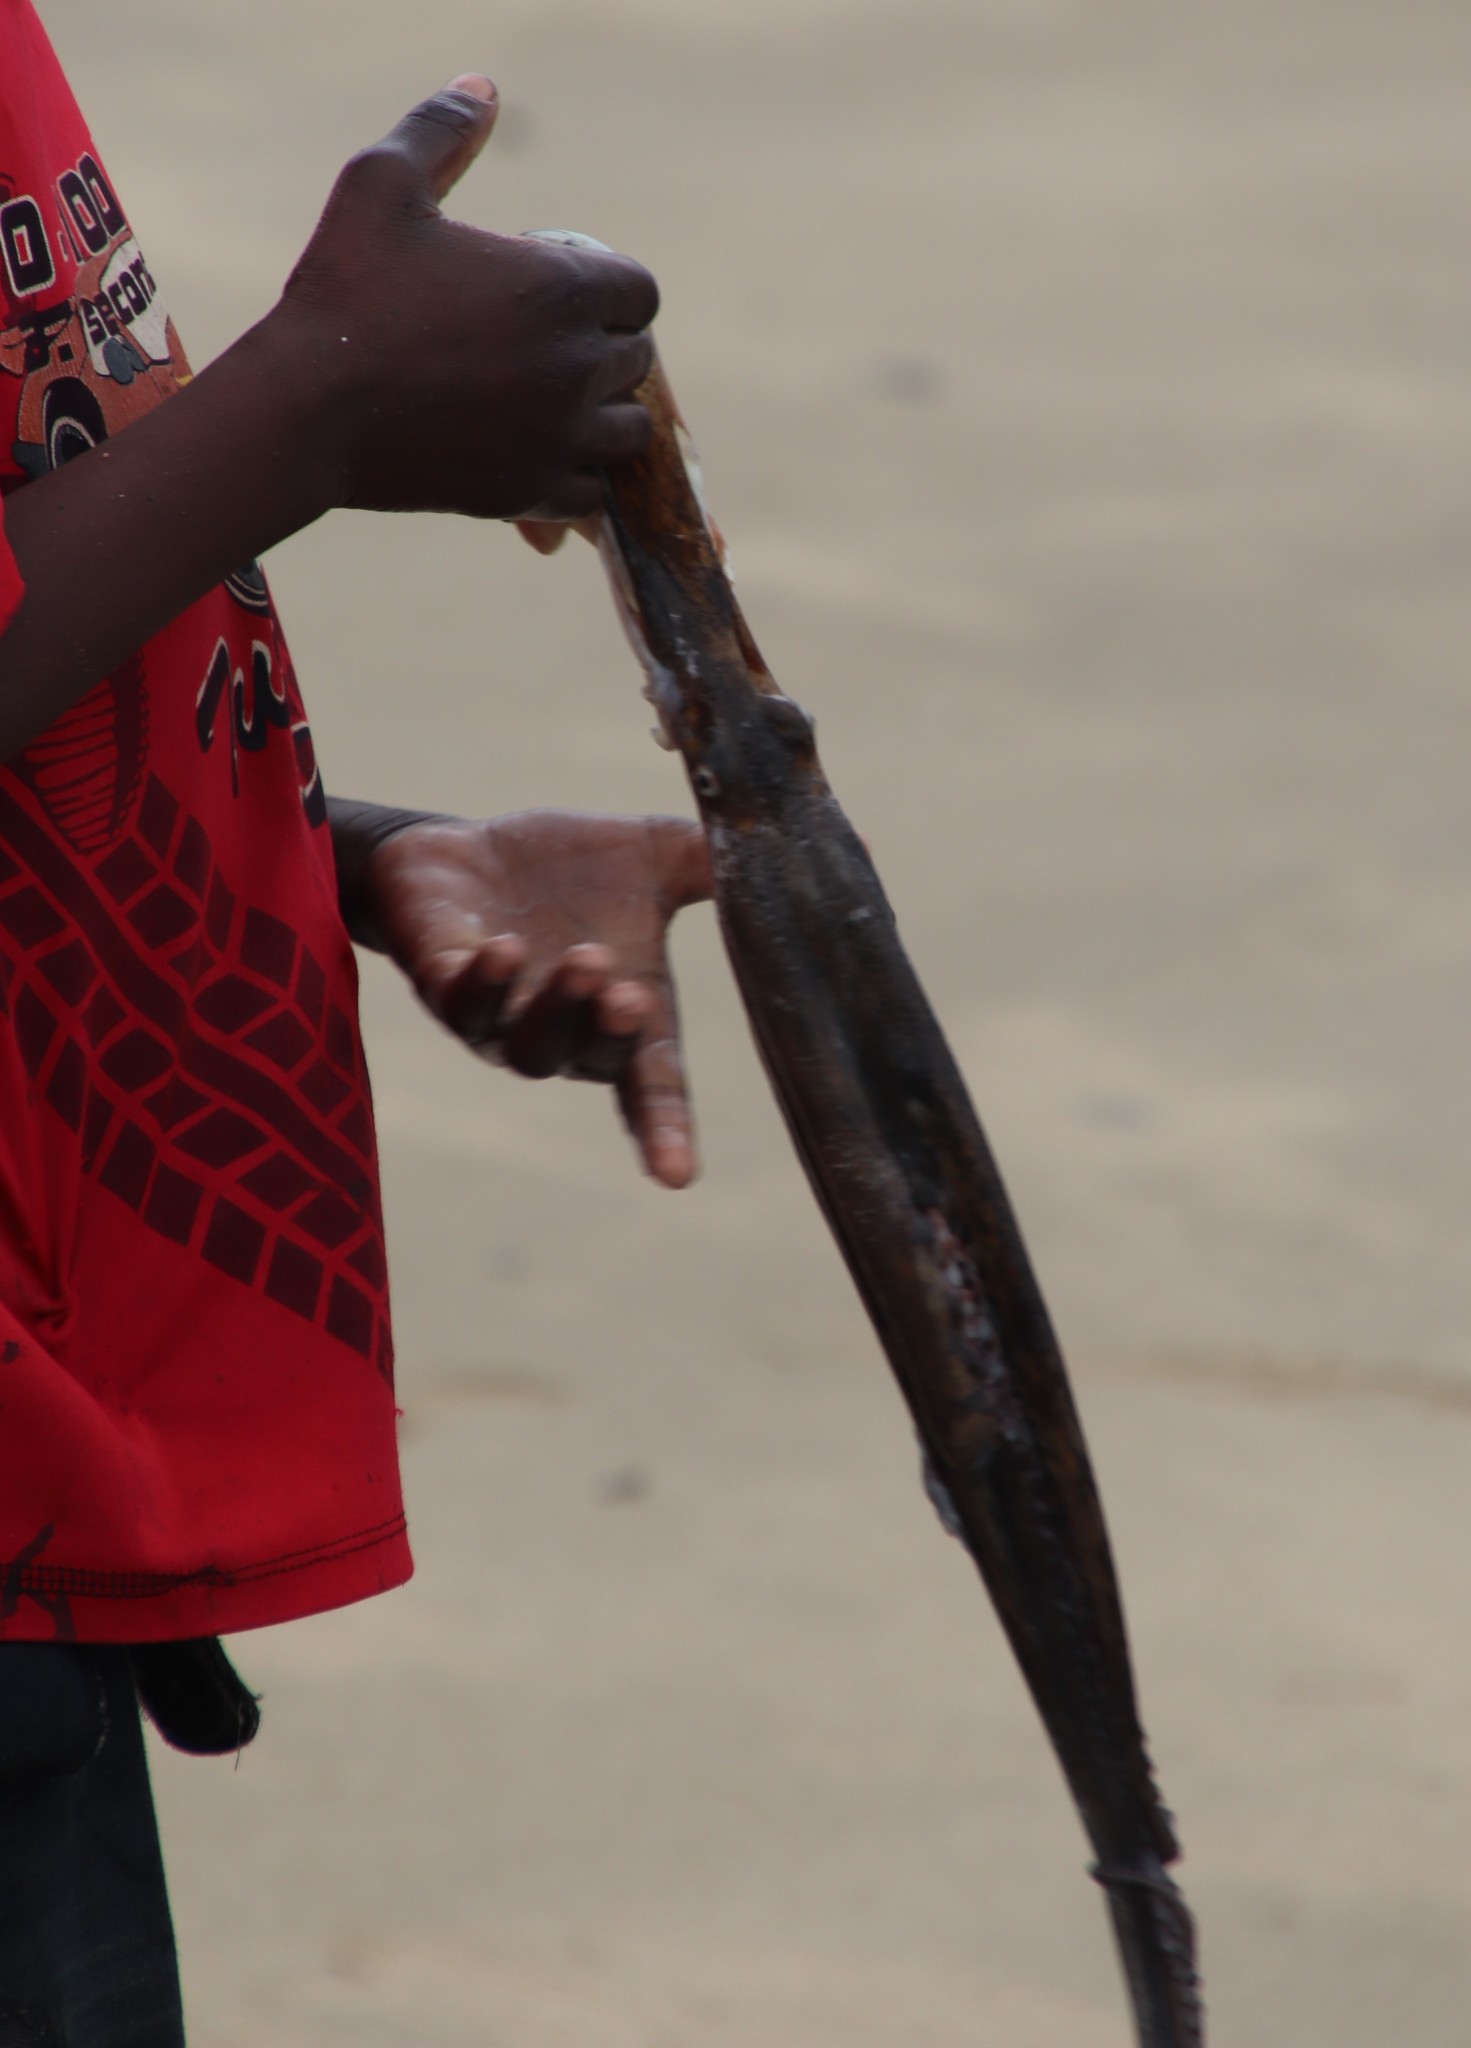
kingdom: Animalia
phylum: Mollusca
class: Cephalopoda
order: Octopoda
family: Octopodidae
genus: Octopus
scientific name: Octopus vulgaris
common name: Common octopus
